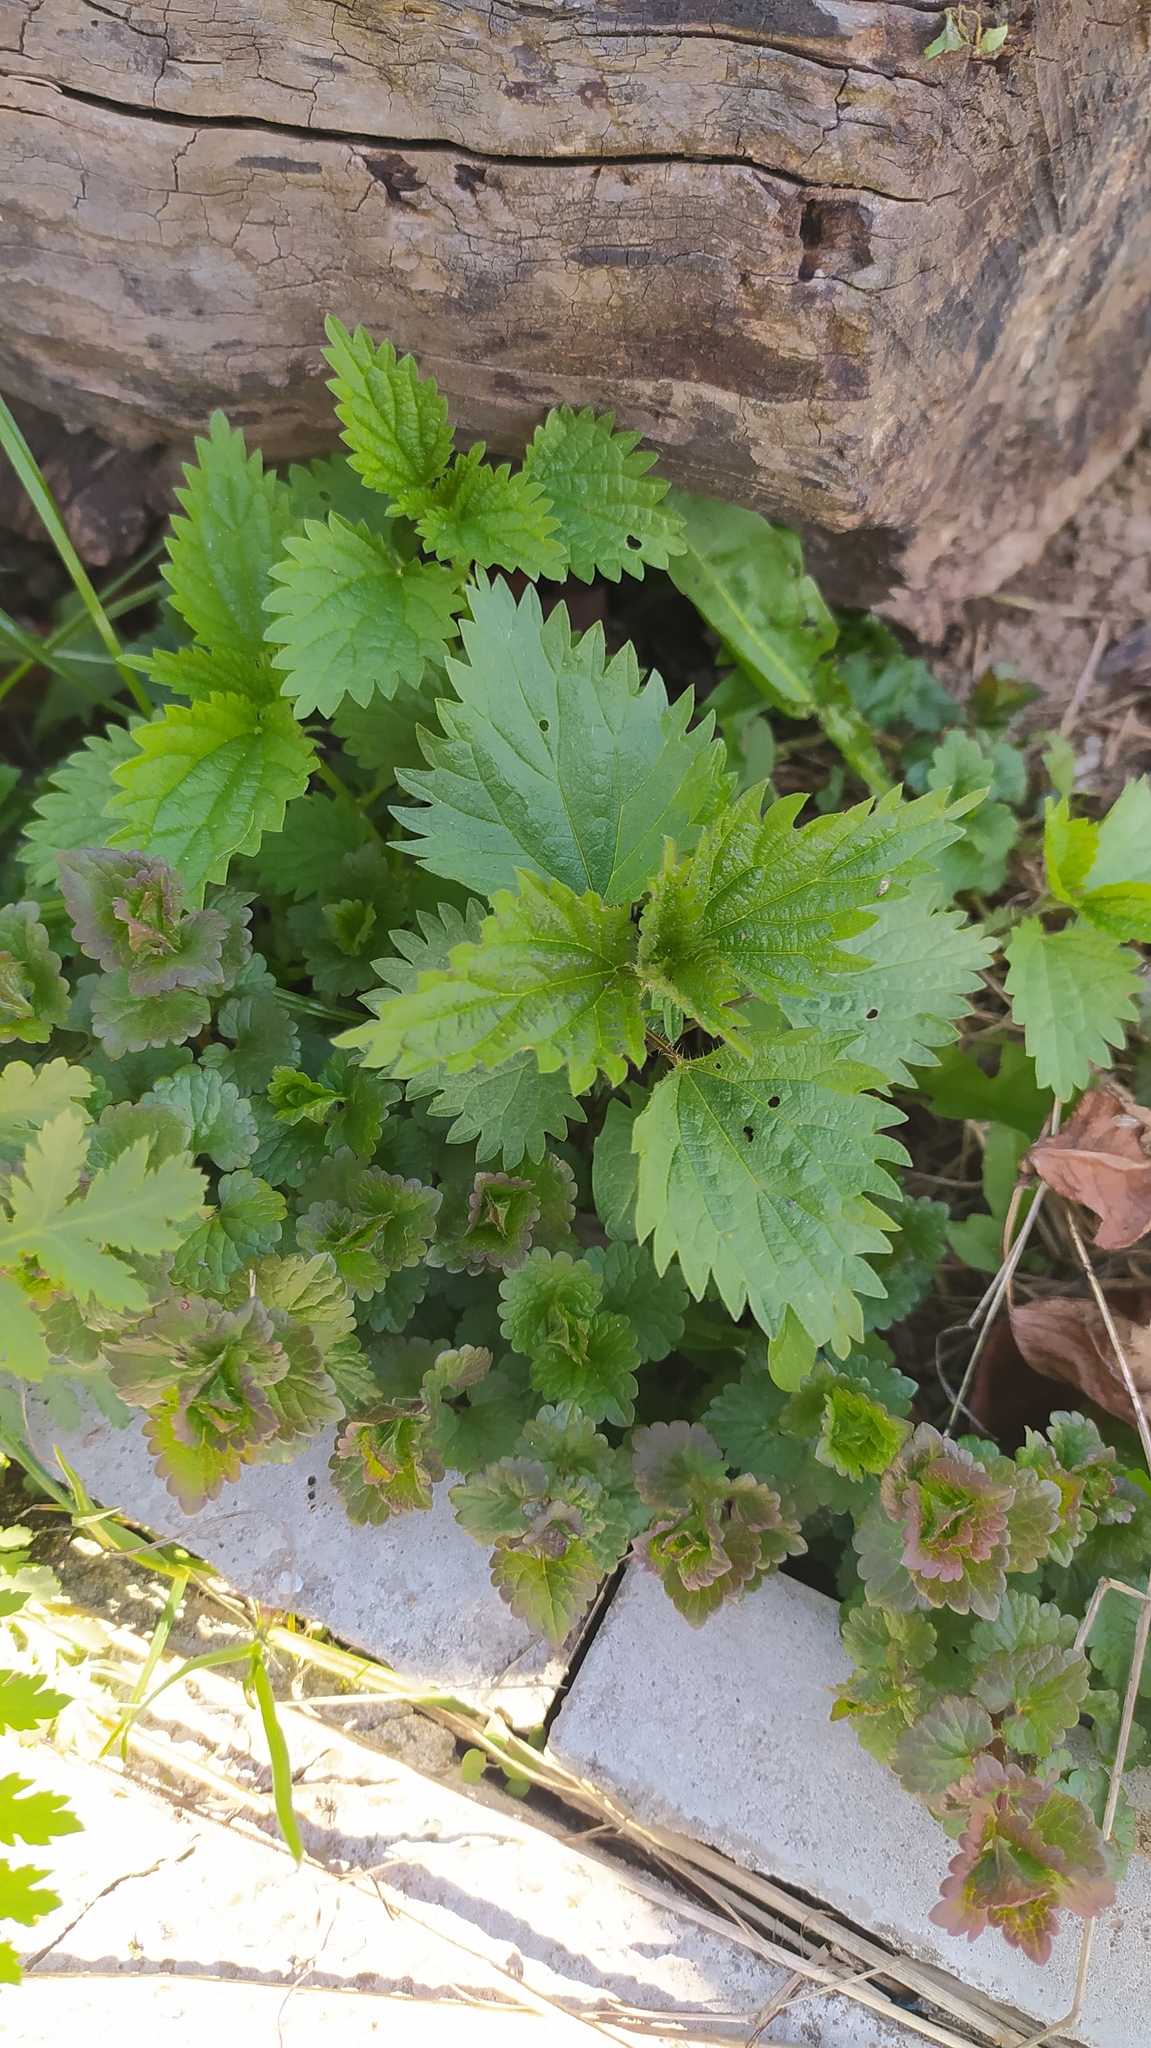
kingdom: Plantae
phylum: Tracheophyta
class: Magnoliopsida
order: Rosales
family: Urticaceae
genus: Urtica
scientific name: Urtica dioica
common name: Common nettle
